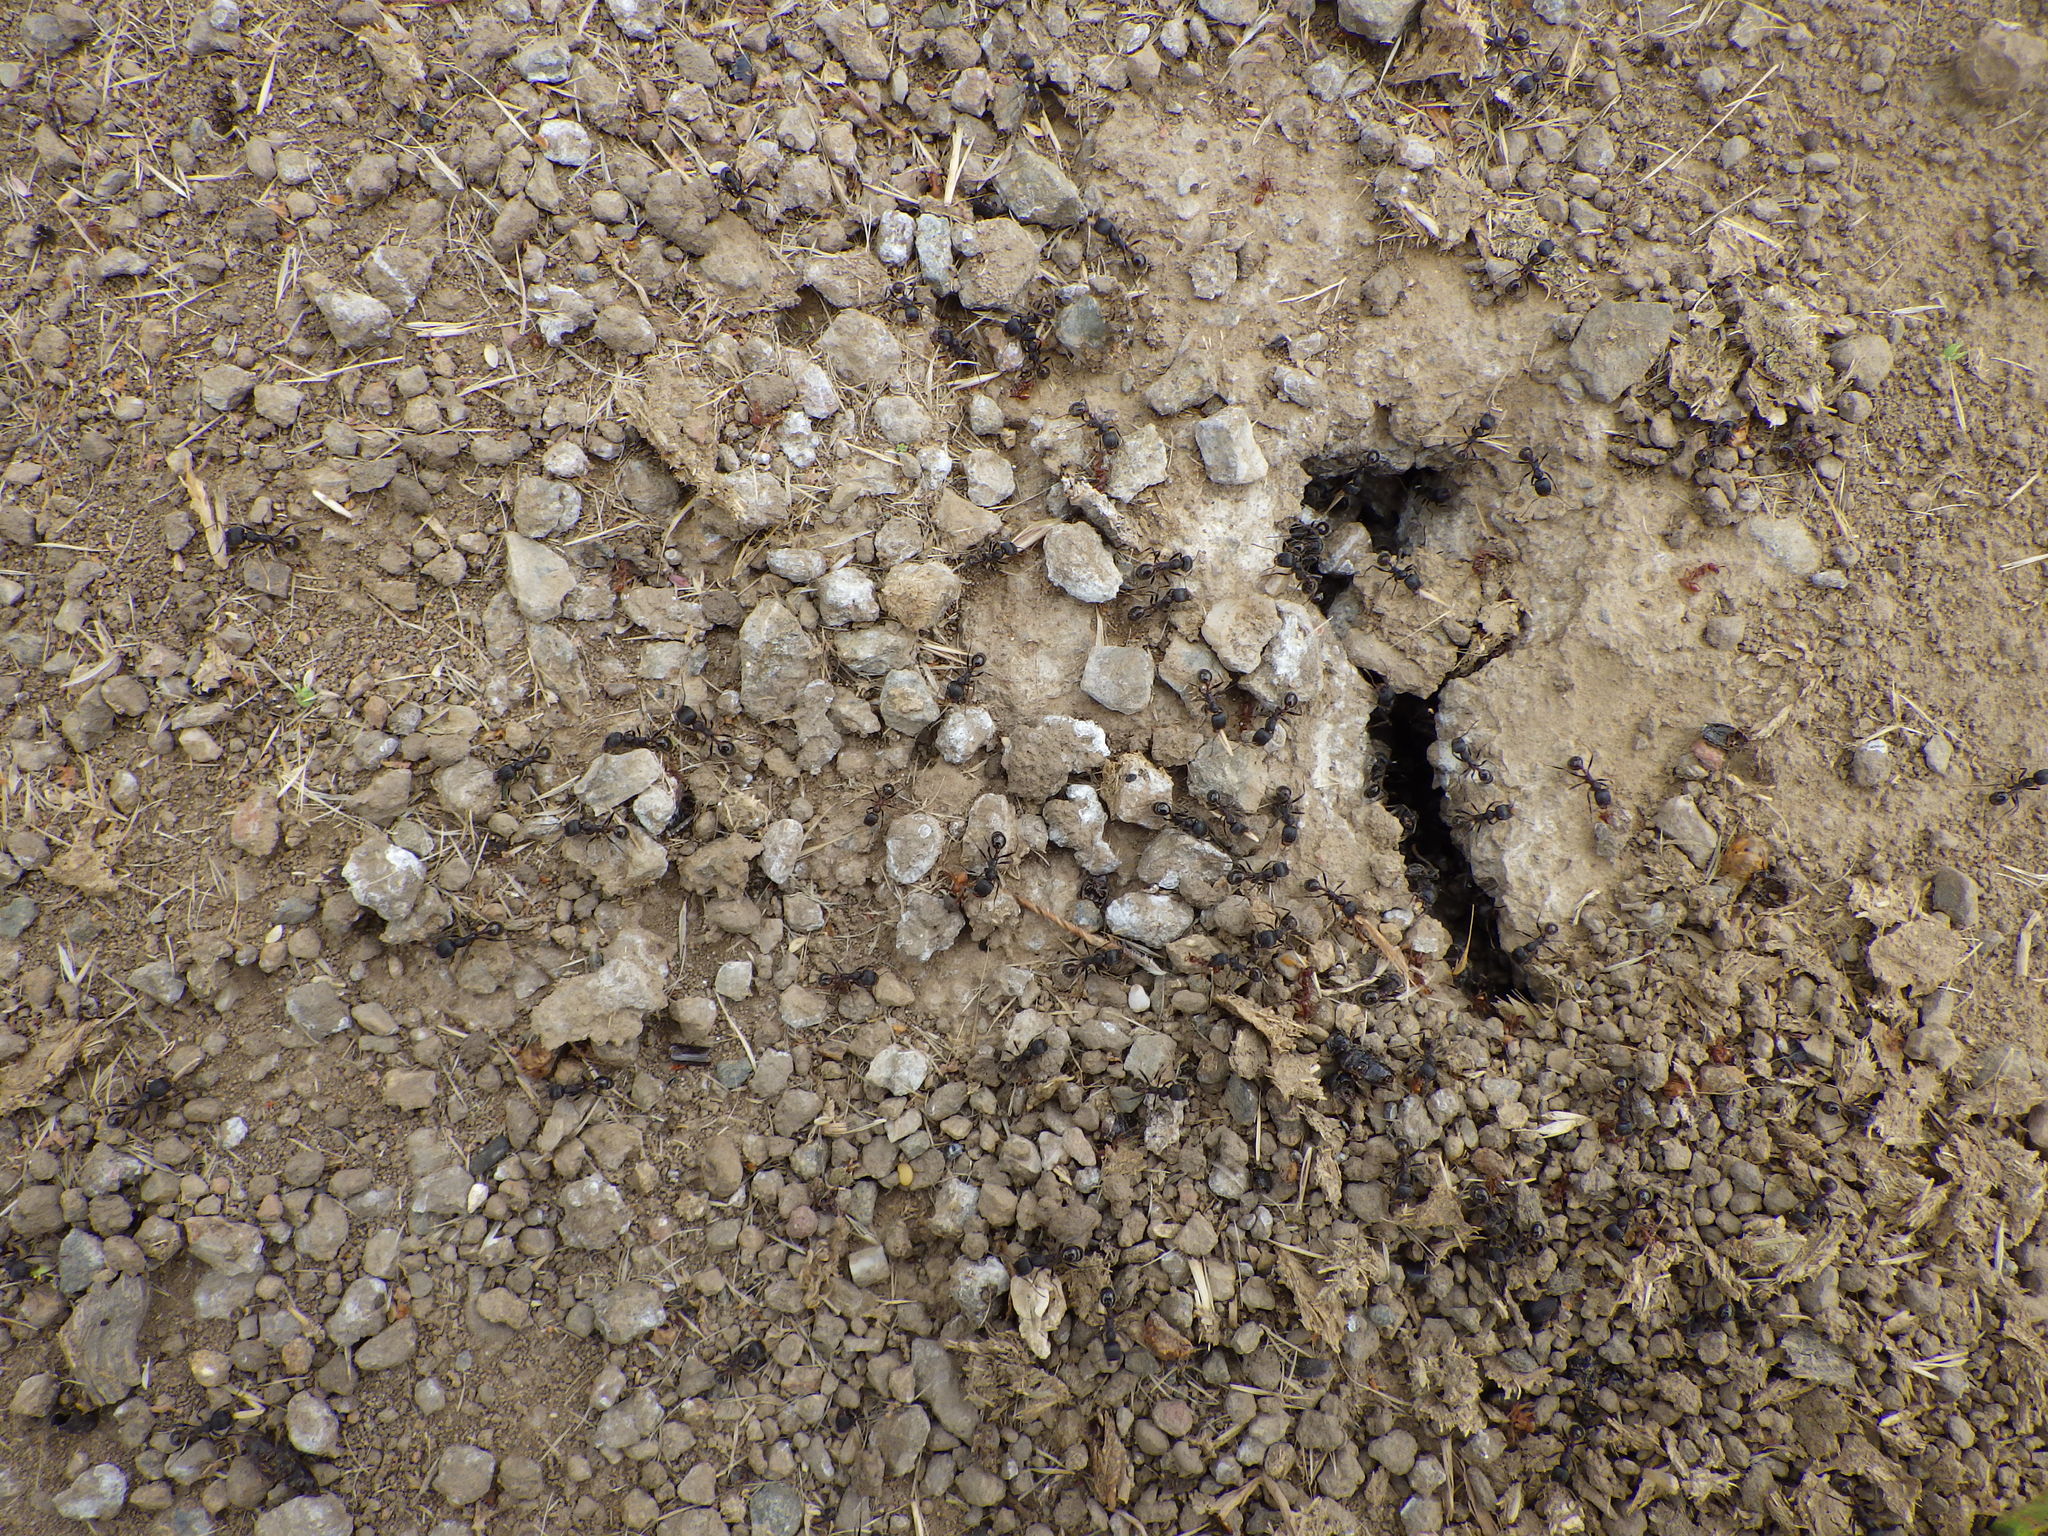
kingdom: Animalia
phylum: Arthropoda
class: Insecta
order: Hymenoptera
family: Formicidae
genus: Veromessor
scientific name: Veromessor andrei
